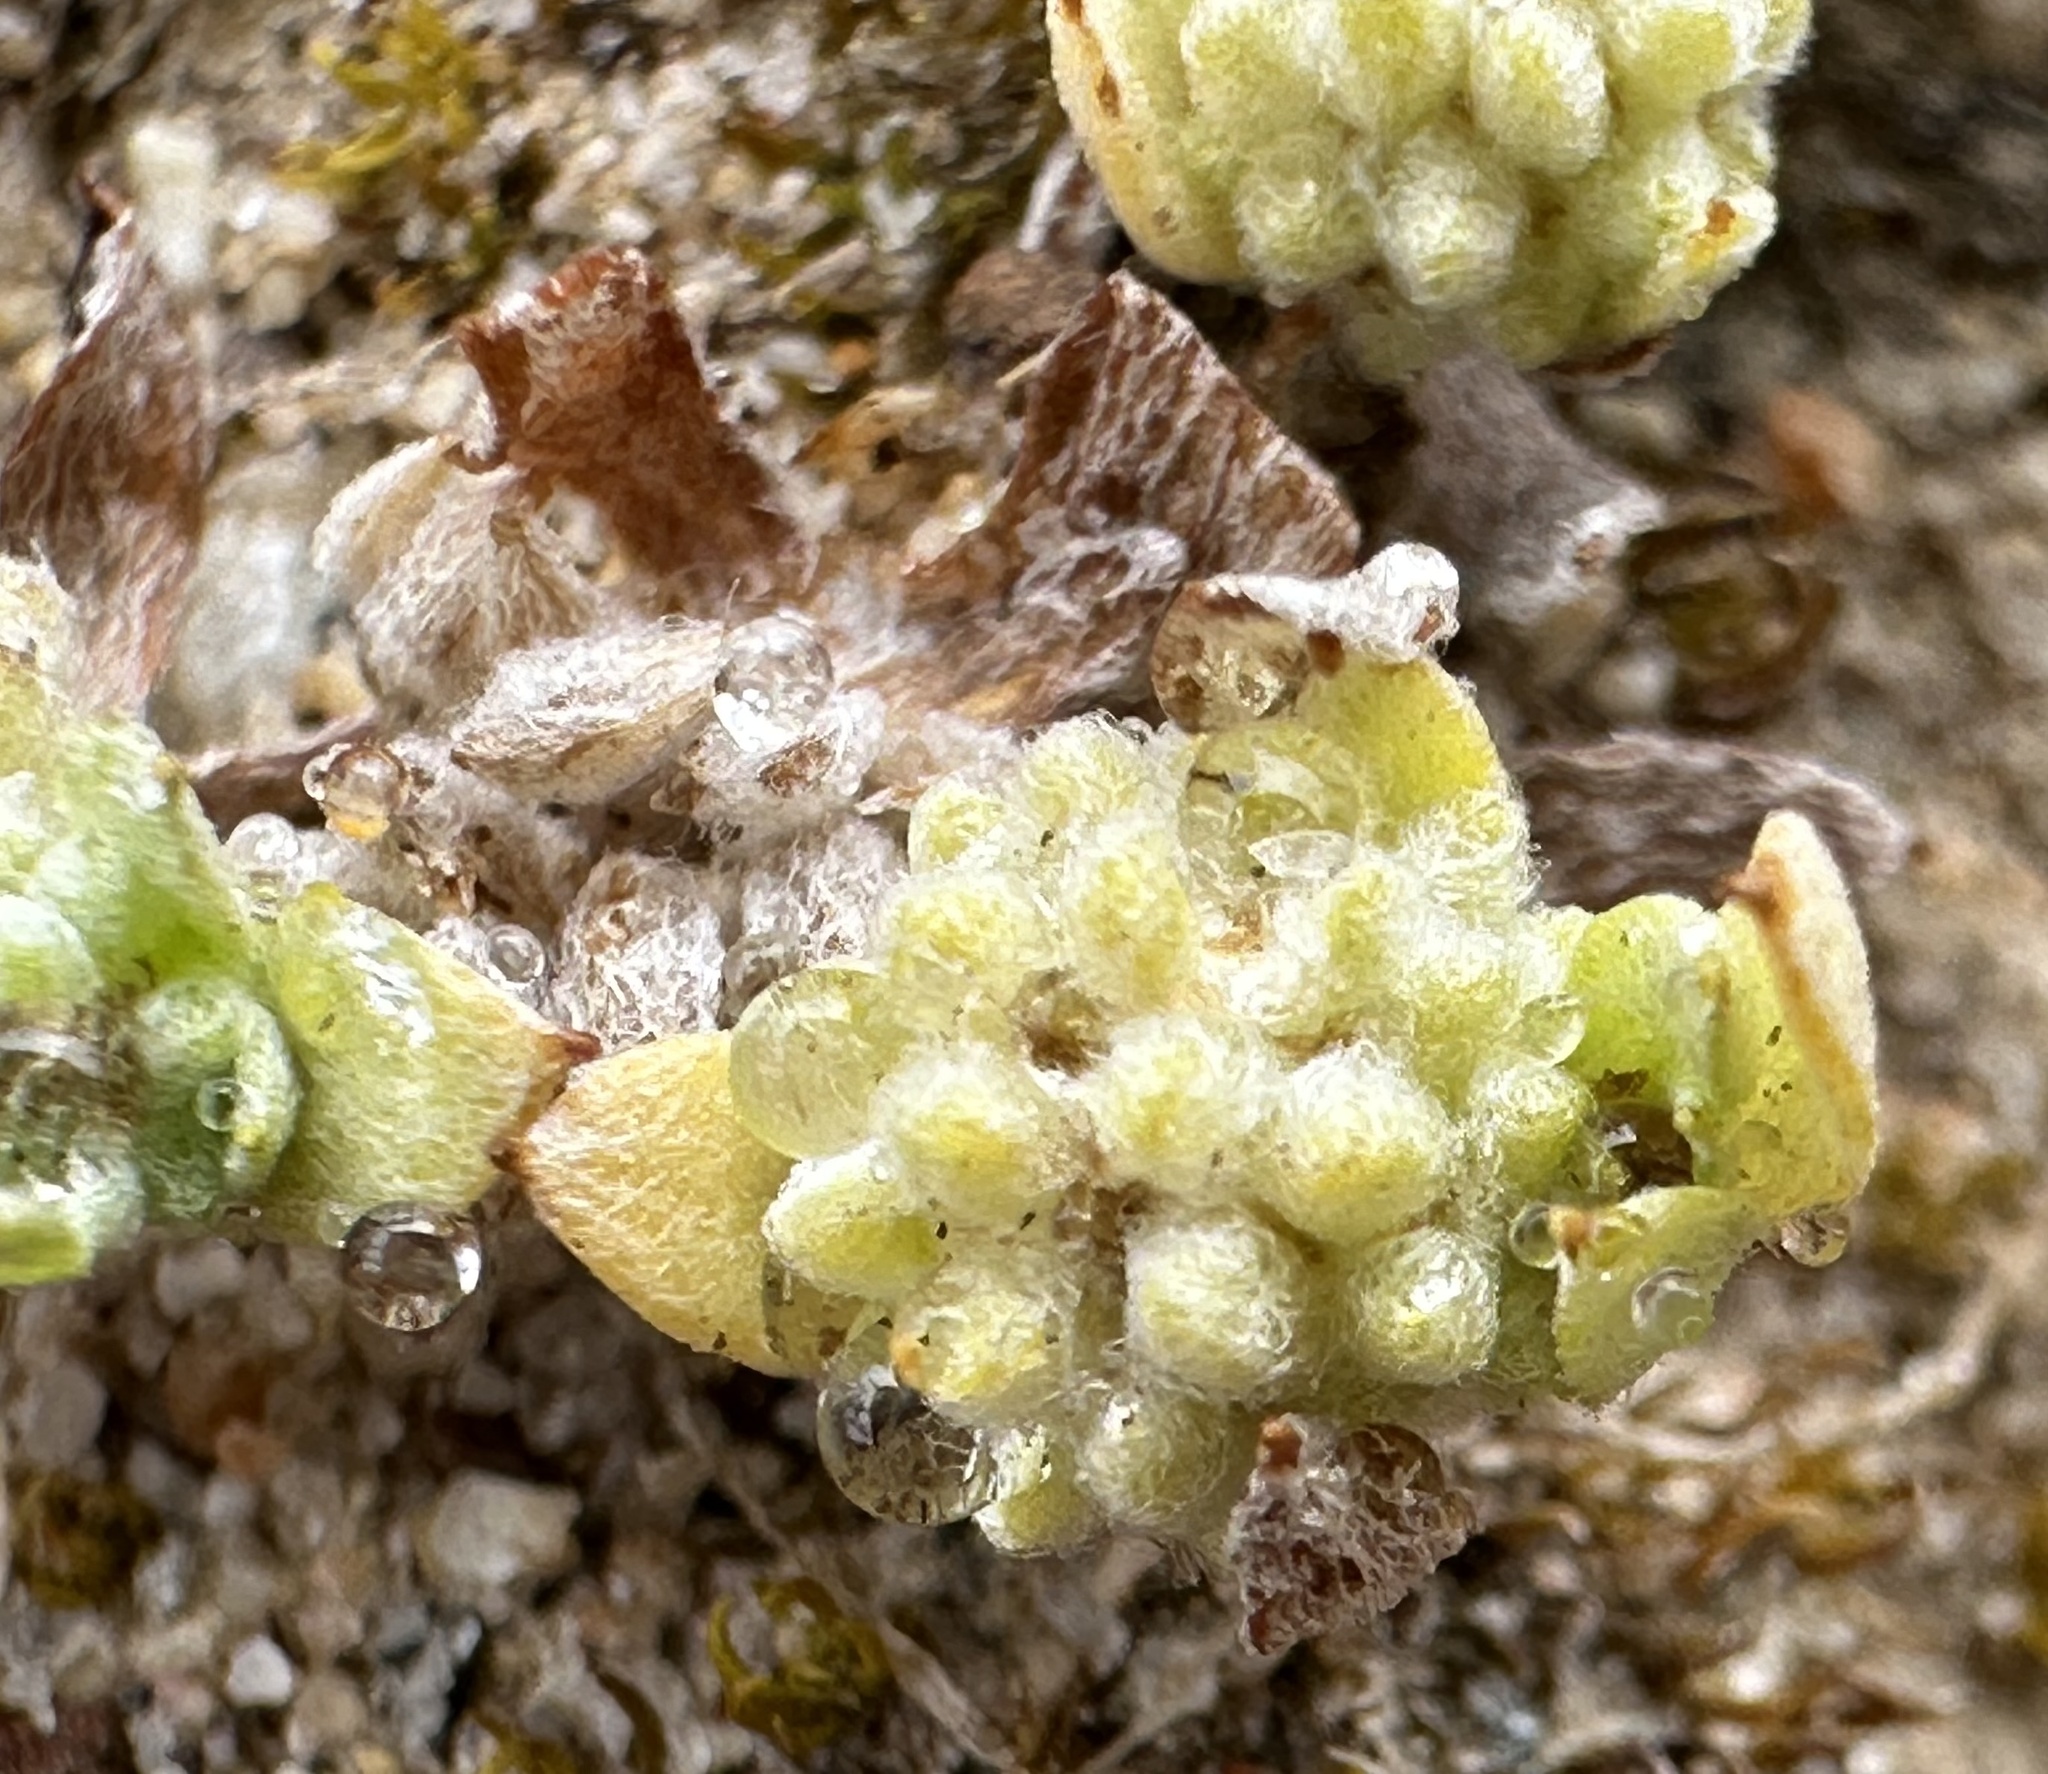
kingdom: Plantae
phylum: Tracheophyta
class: Magnoliopsida
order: Asterales
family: Asteraceae
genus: Psilocarphus
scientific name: Psilocarphus tenellus
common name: Slender woolly-marbles
